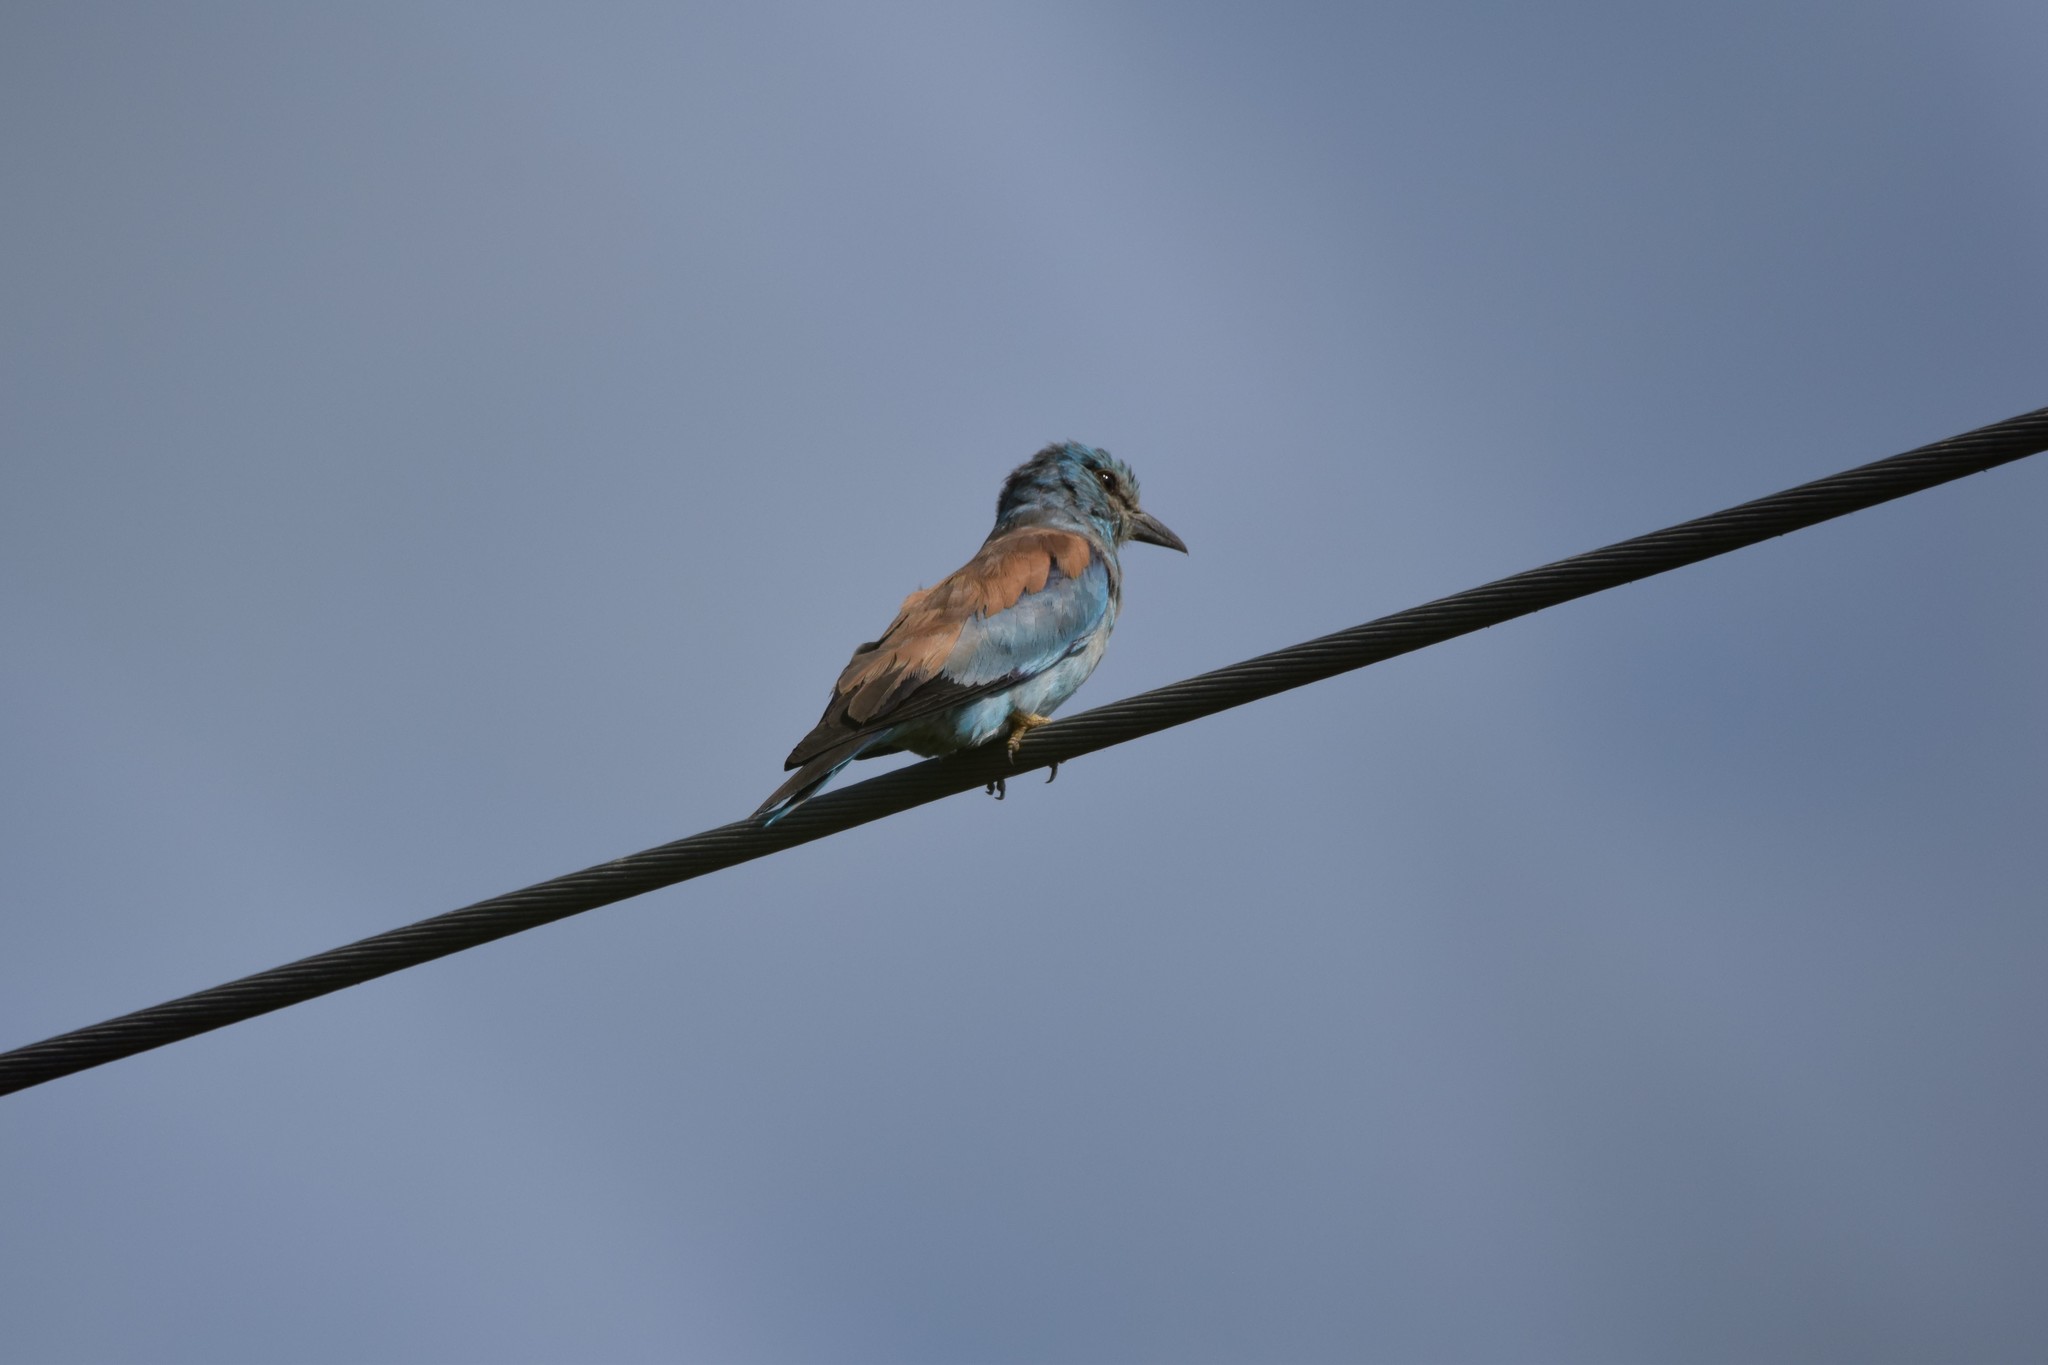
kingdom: Animalia
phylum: Chordata
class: Aves
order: Coraciiformes
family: Coraciidae
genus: Coracias
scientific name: Coracias garrulus
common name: European roller
